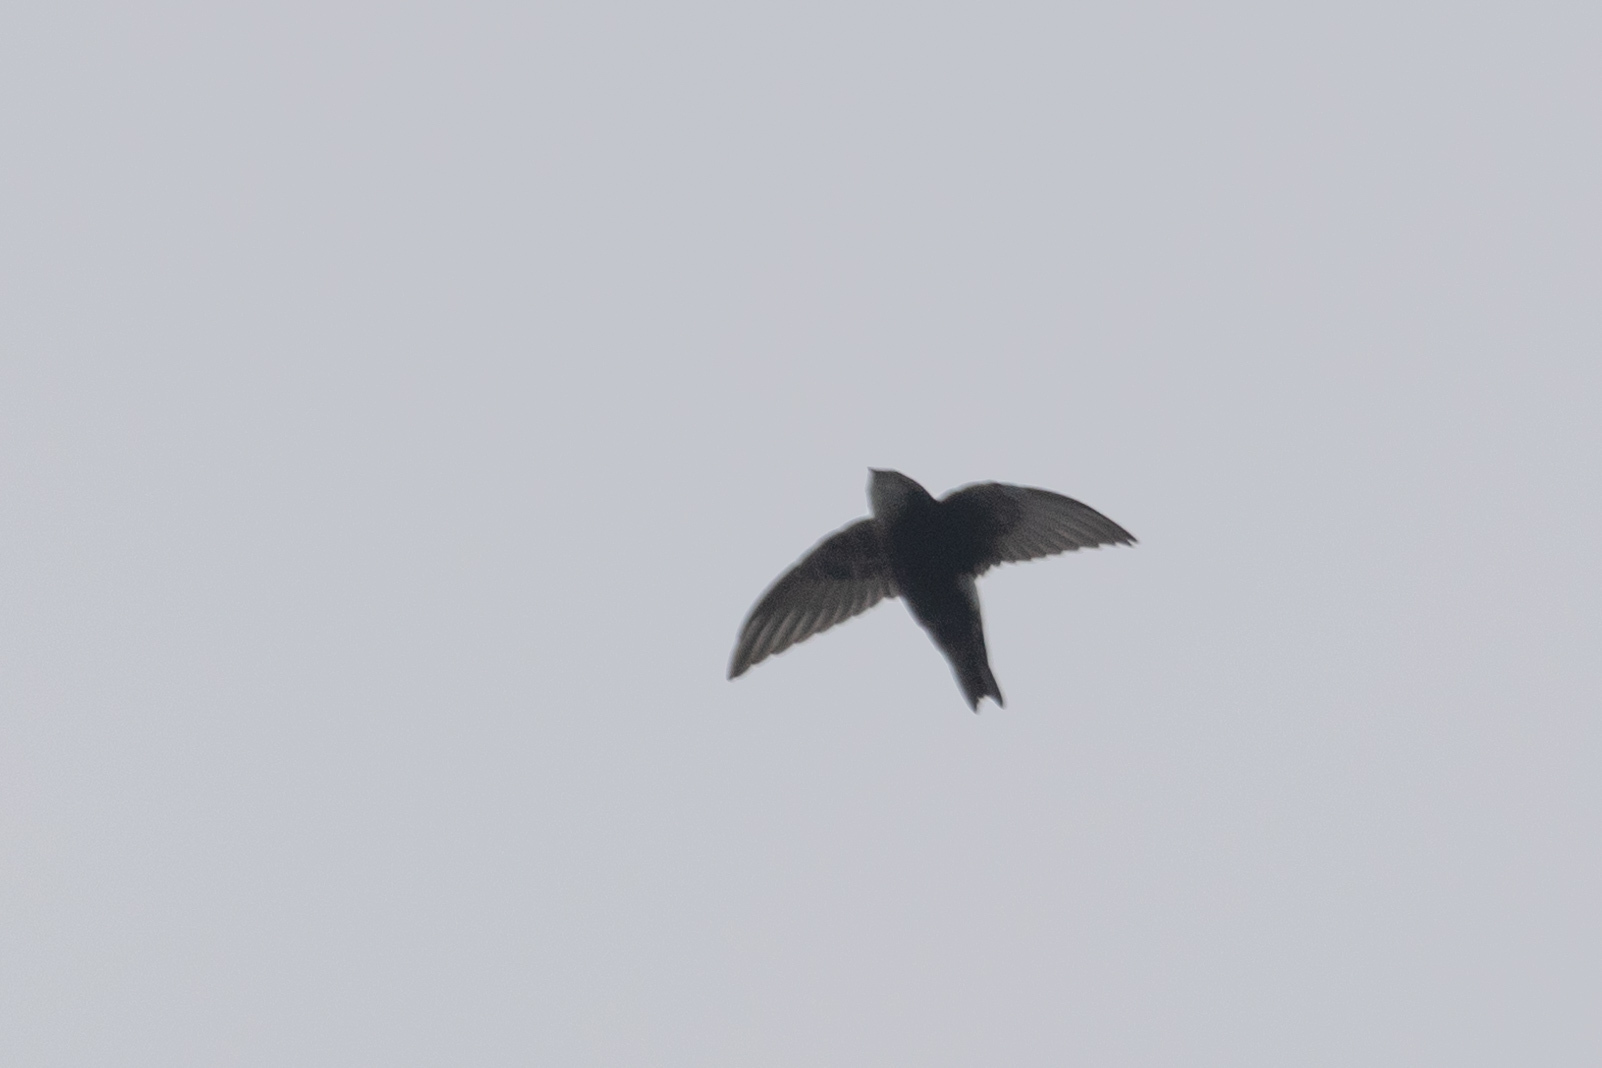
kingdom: Animalia
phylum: Chordata
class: Aves
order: Apodiformes
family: Apodidae
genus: Apus
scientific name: Apus nipalensis
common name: House swift
